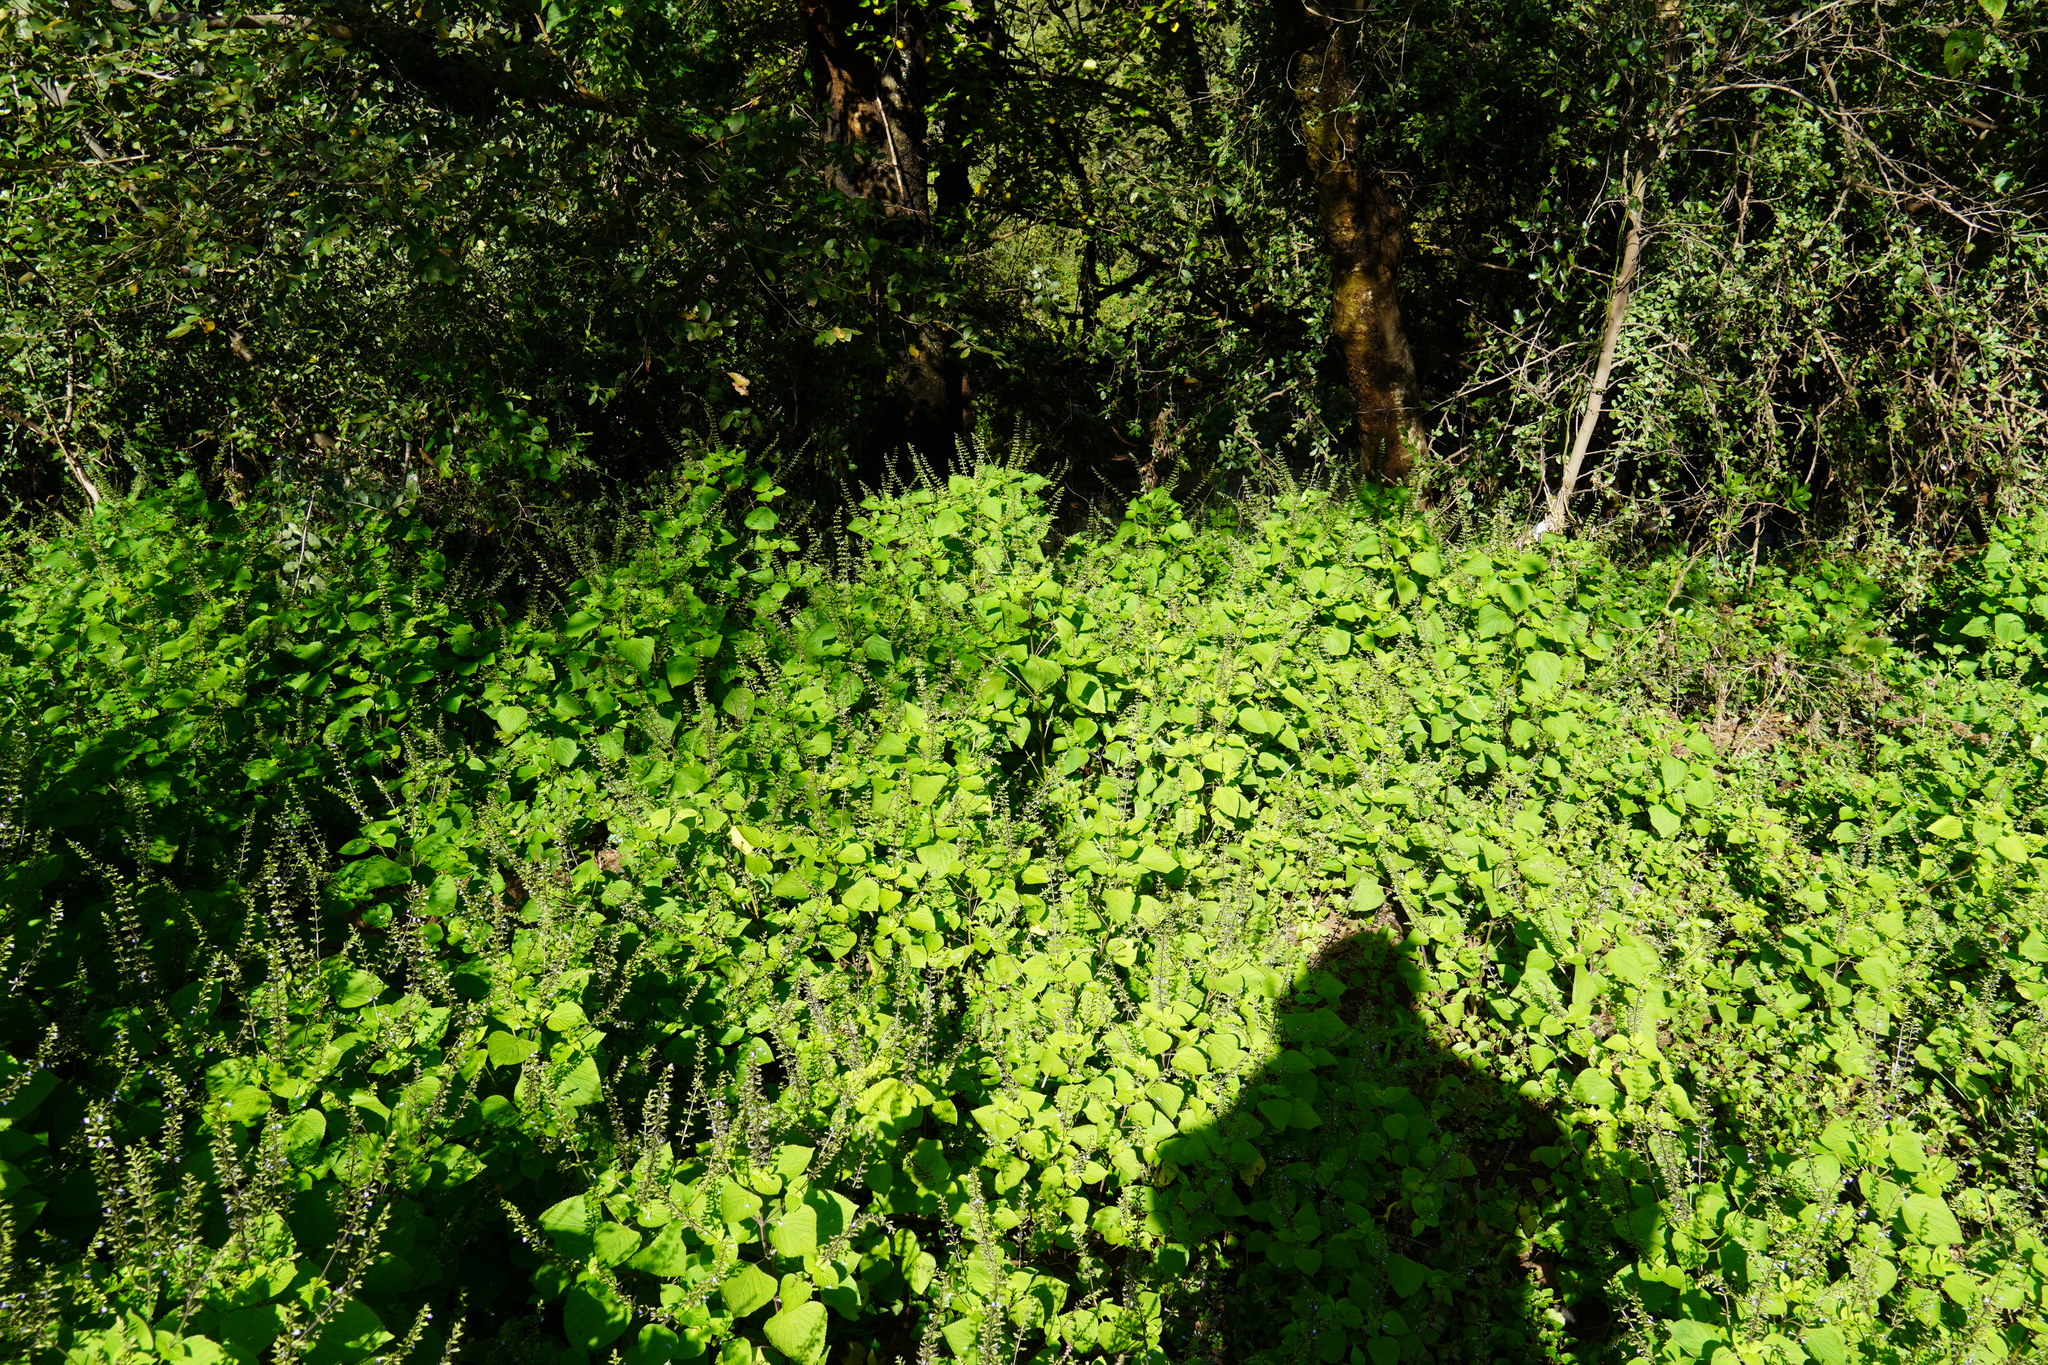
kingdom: Plantae
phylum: Tracheophyta
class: Magnoliopsida
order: Lamiales
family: Lamiaceae
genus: Salvia
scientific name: Salvia tiliifolia
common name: Lindenleaf sage
